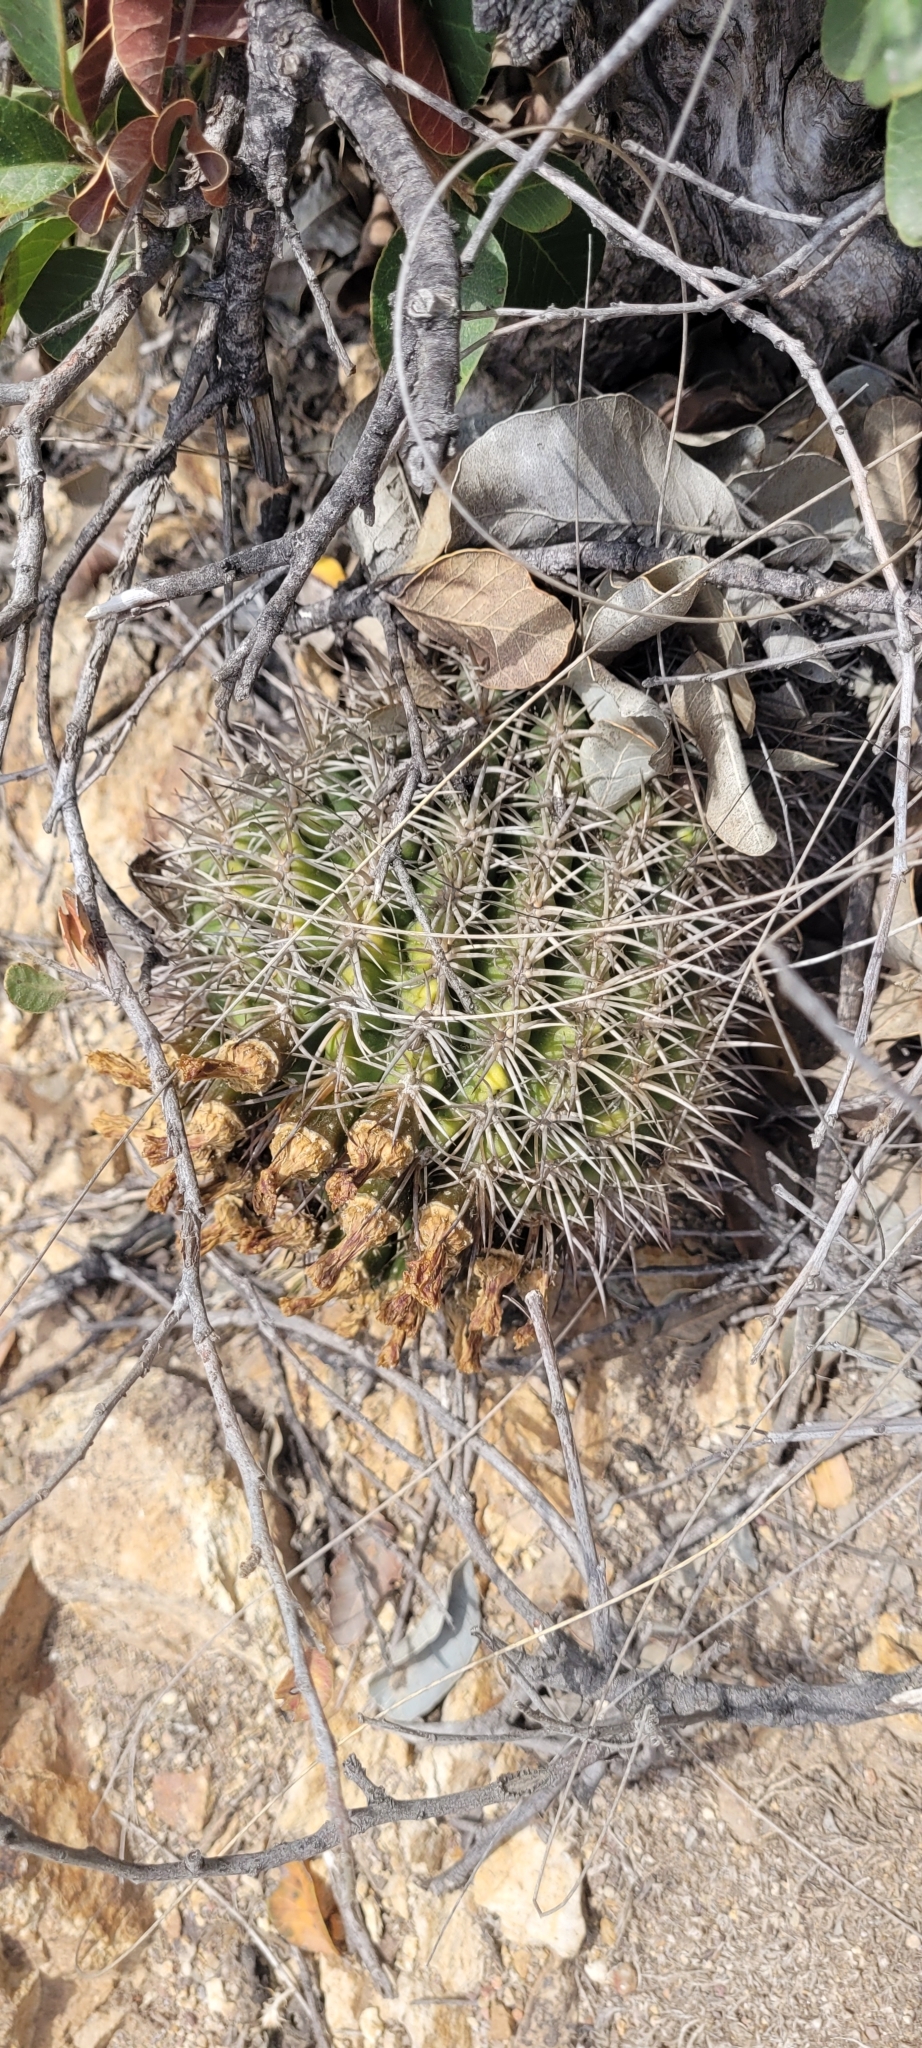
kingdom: Plantae
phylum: Tracheophyta
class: Magnoliopsida
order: Caryophyllales
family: Cactaceae
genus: Eriosyce
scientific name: Eriosyce curvispina
